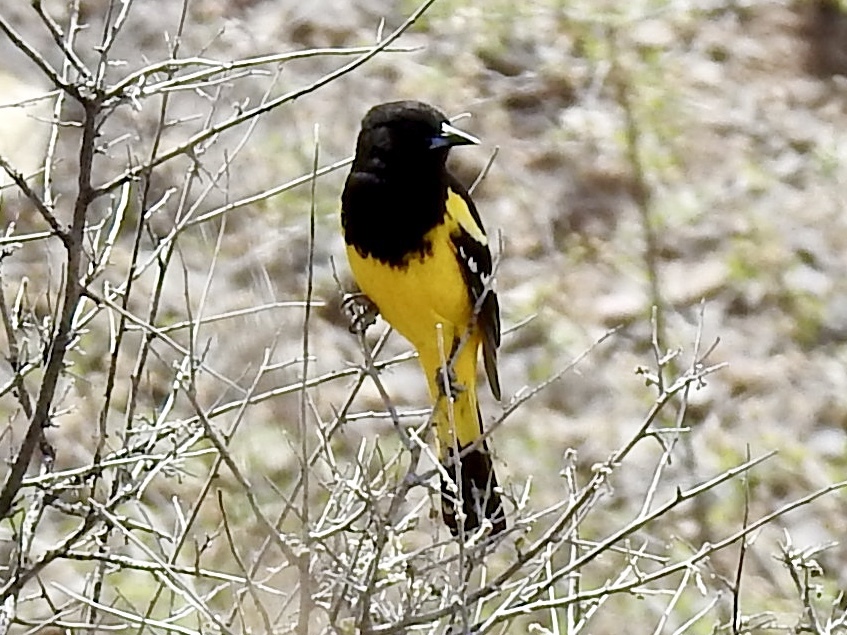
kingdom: Animalia
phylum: Chordata
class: Aves
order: Passeriformes
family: Icteridae
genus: Icterus
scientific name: Icterus parisorum
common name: Scott's oriole
